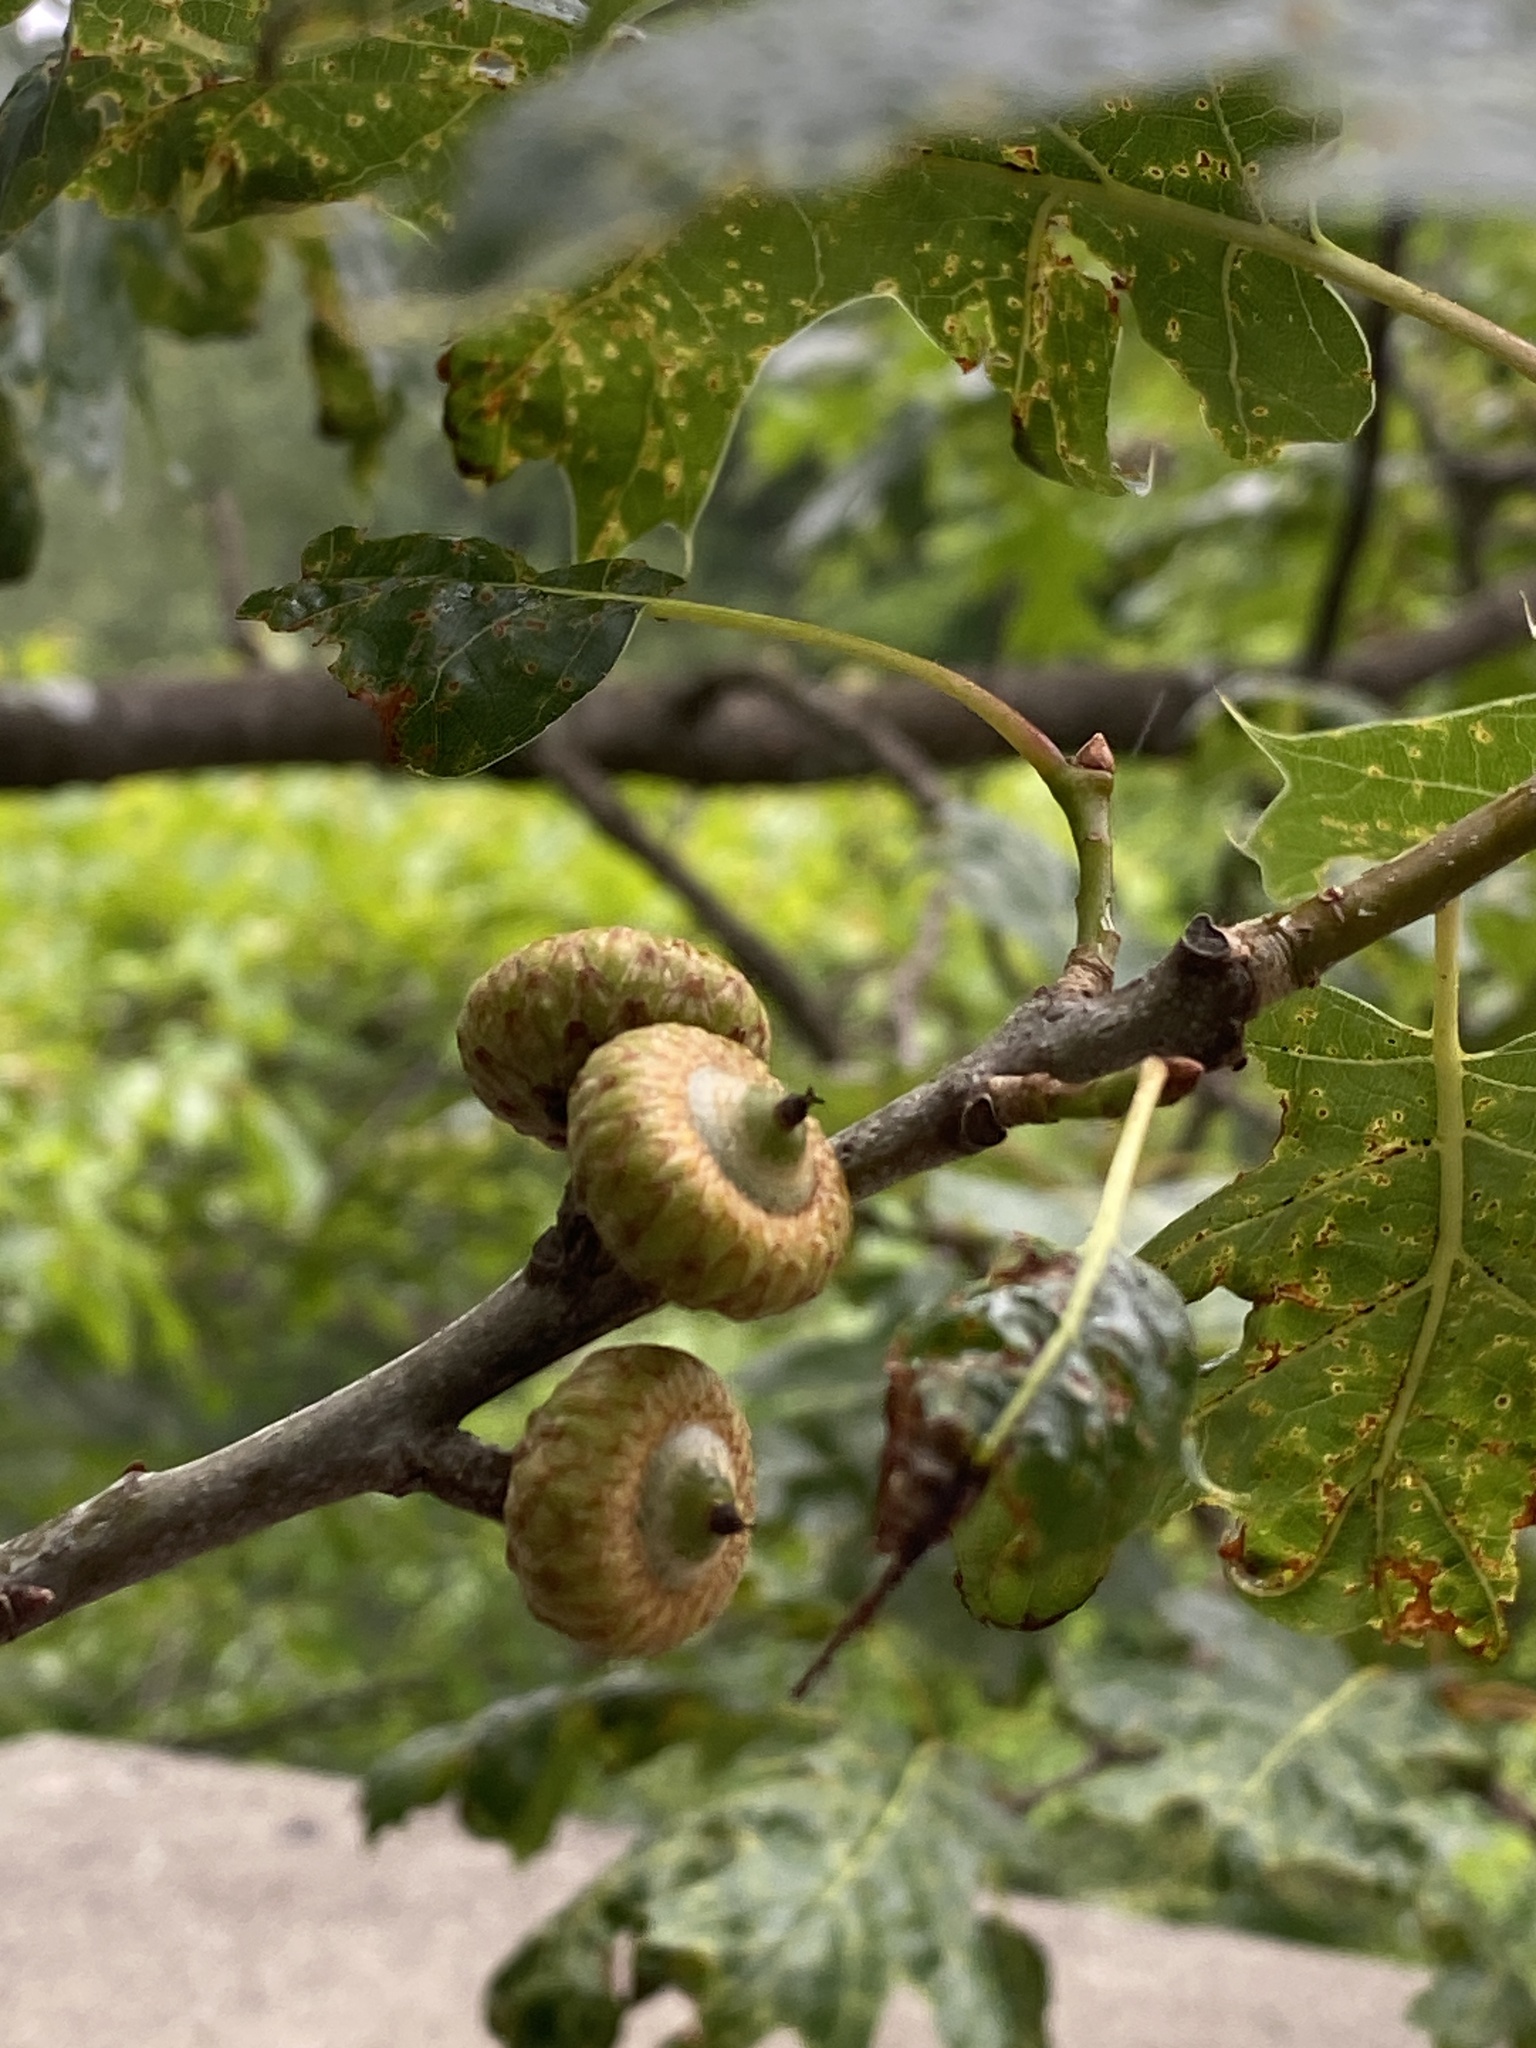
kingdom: Plantae
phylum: Tracheophyta
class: Magnoliopsida
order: Fagales
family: Fagaceae
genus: Quercus
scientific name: Quercus rubra
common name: Red oak
